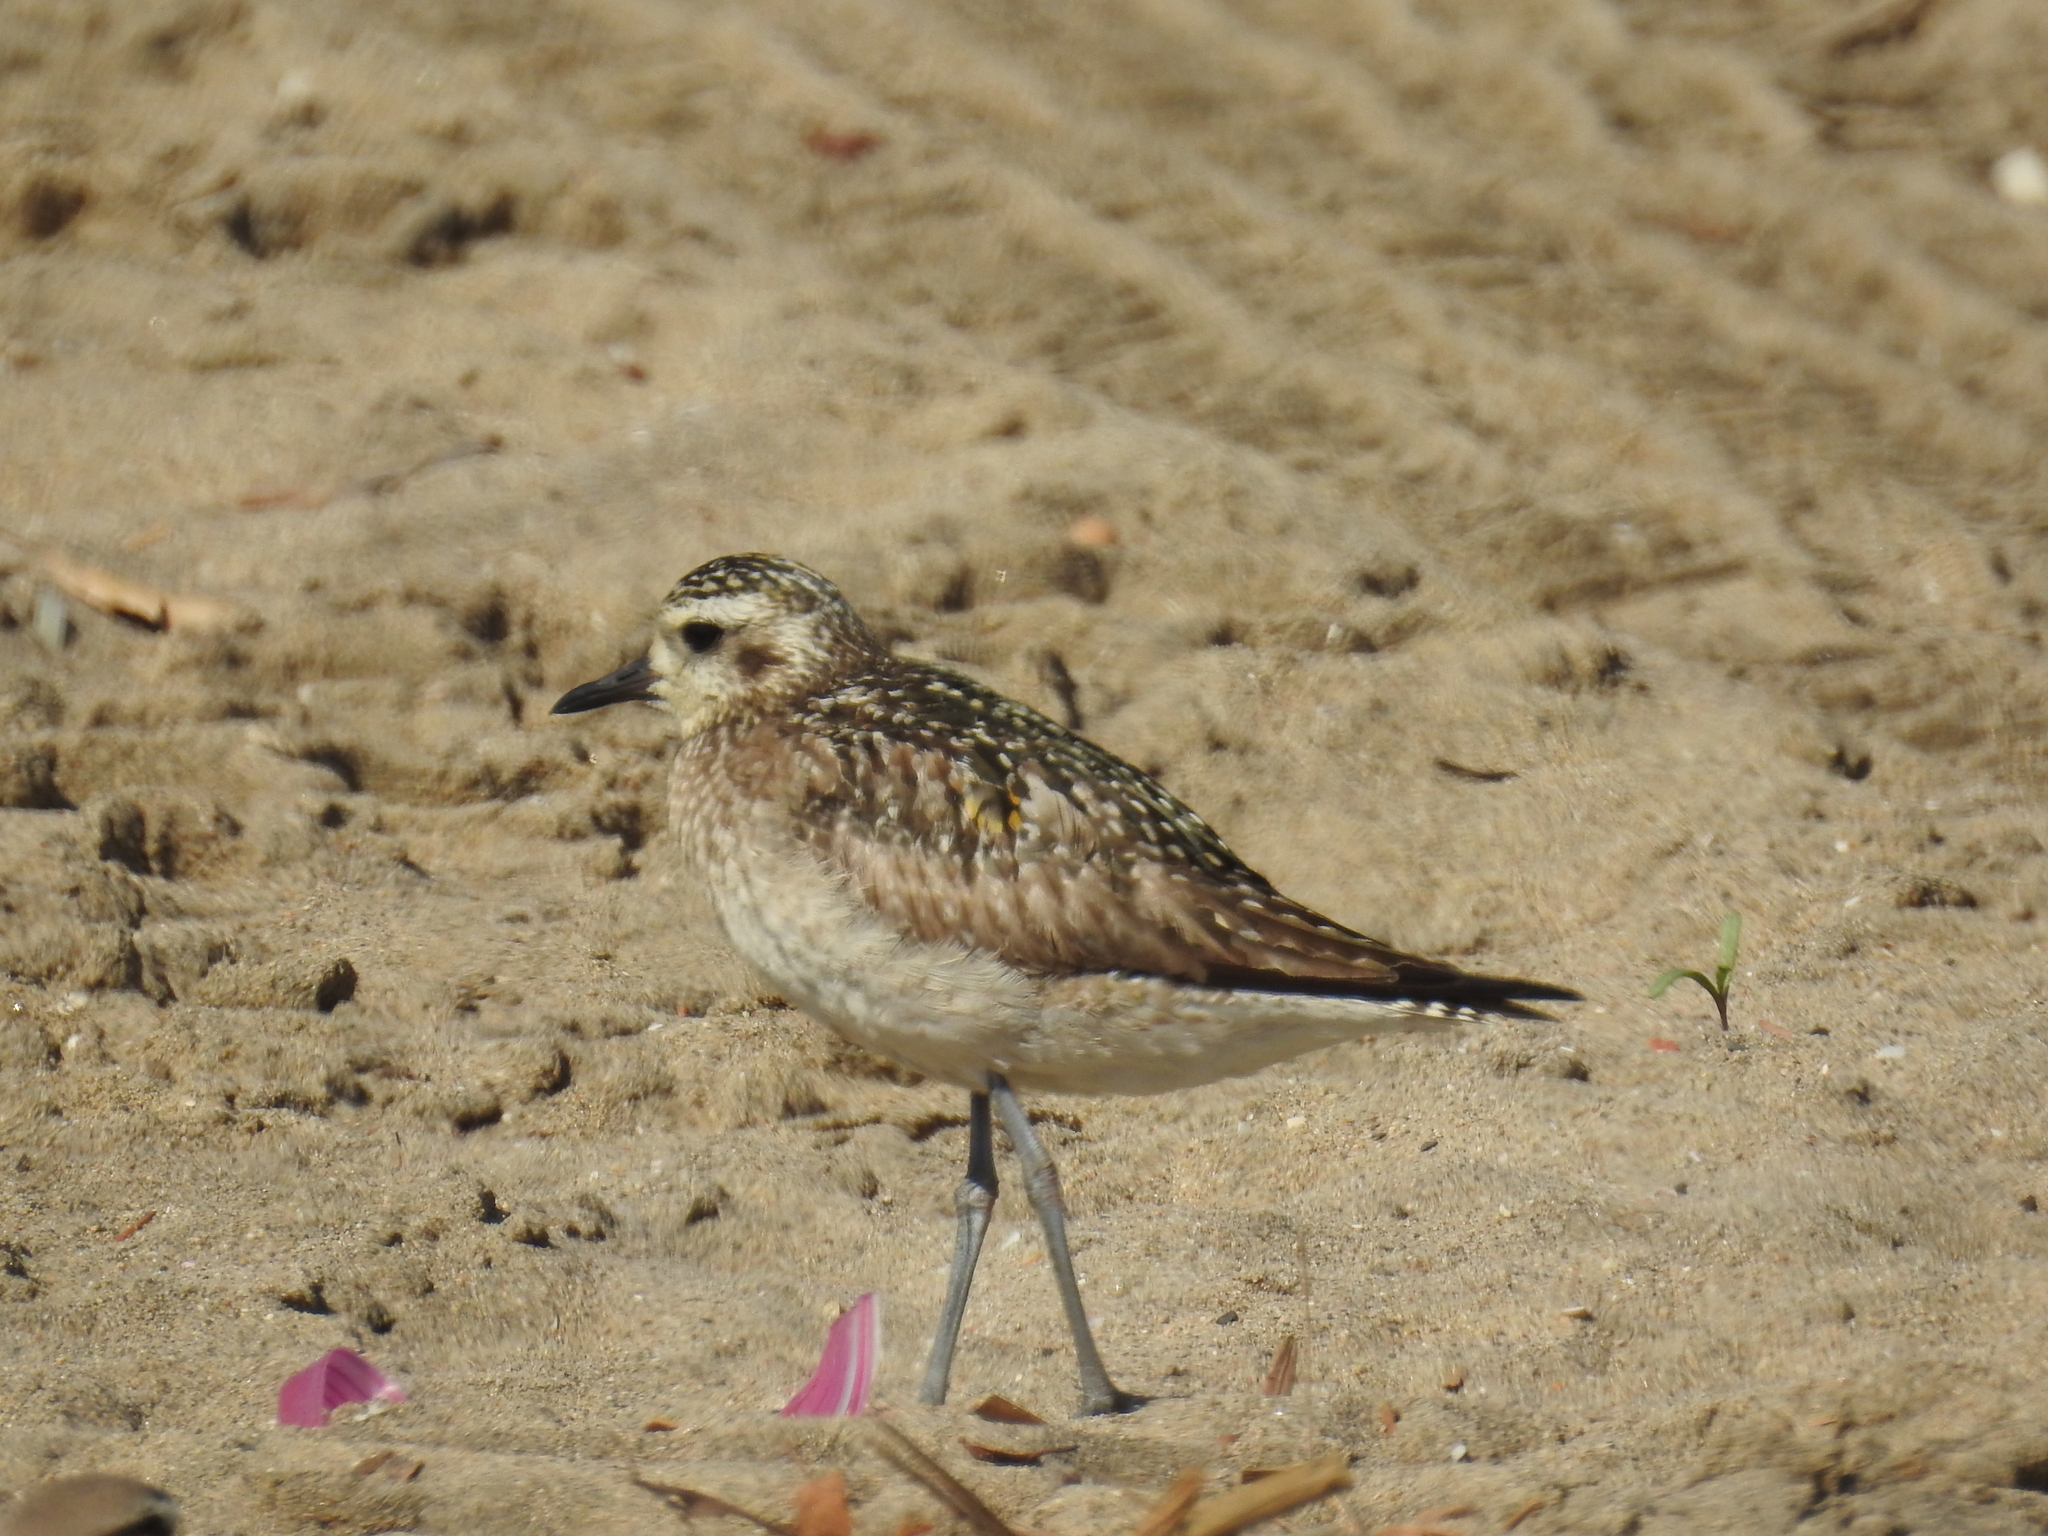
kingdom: Animalia
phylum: Chordata
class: Aves
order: Charadriiformes
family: Charadriidae
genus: Pluvialis
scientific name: Pluvialis fulva
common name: Pacific golden plover
